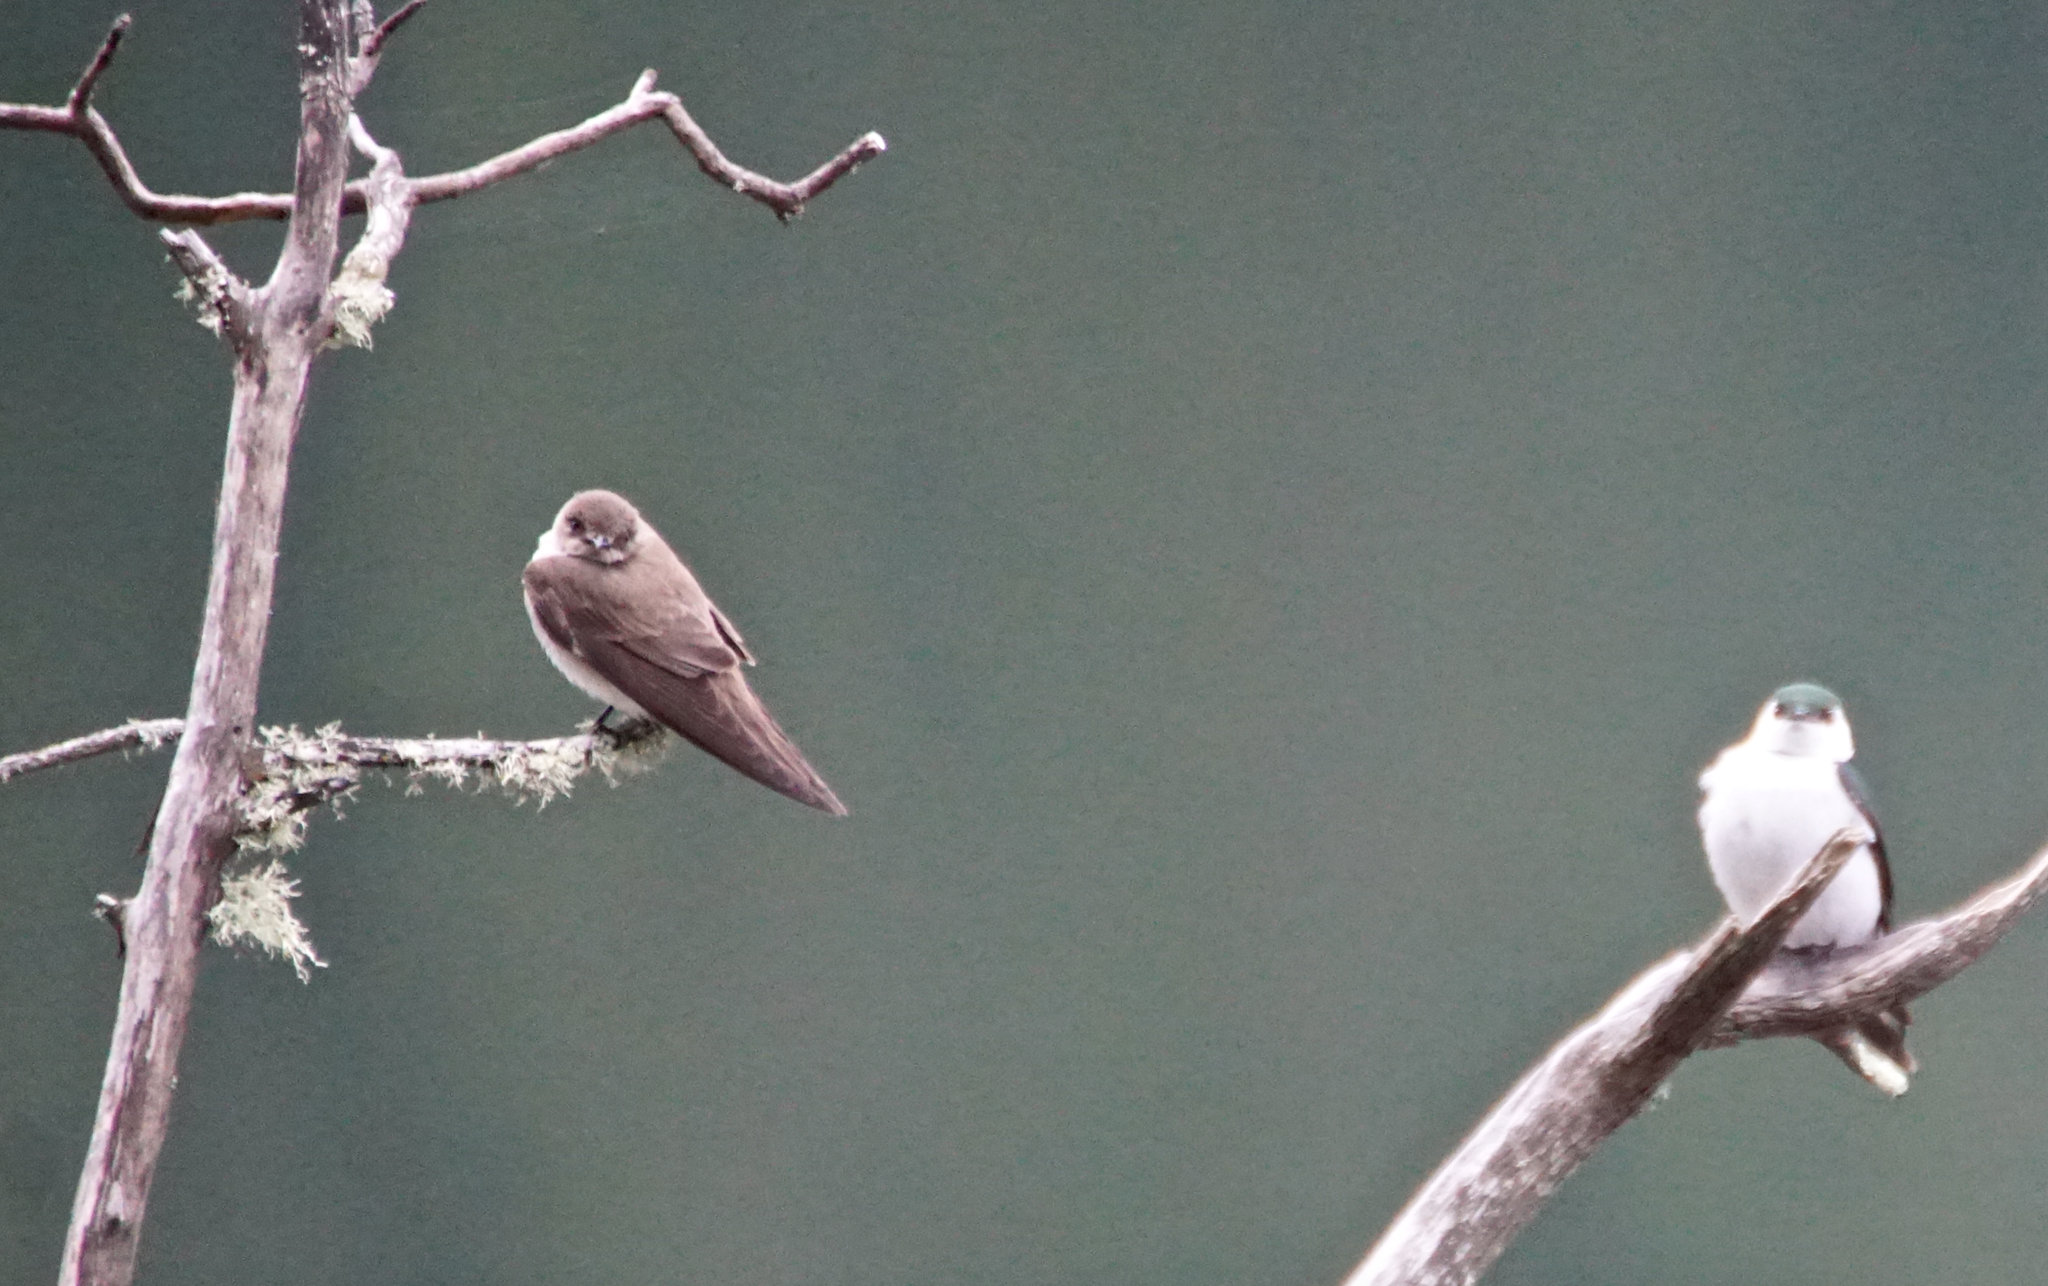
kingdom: Animalia
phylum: Chordata
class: Aves
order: Passeriformes
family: Hirundinidae
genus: Stelgidopteryx
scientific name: Stelgidopteryx serripennis
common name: Northern rough-winged swallow
